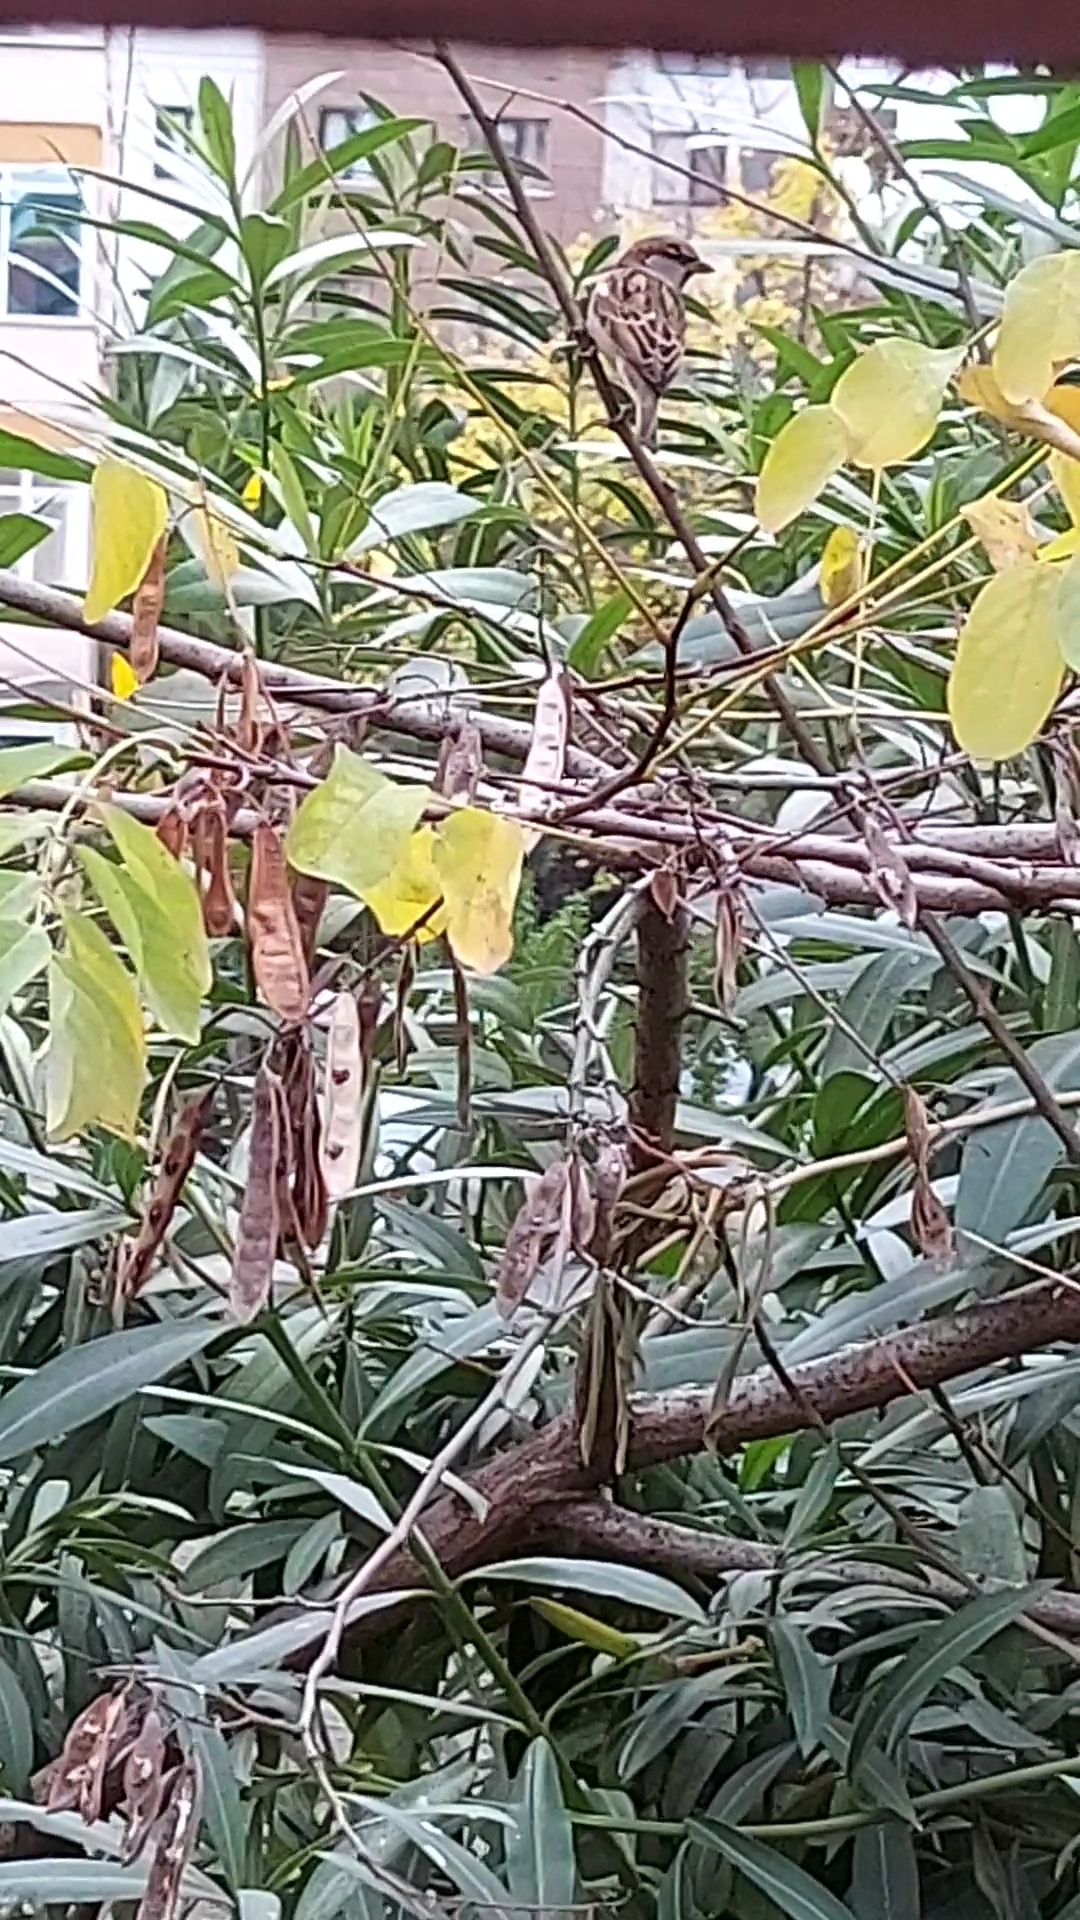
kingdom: Animalia
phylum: Chordata
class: Aves
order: Passeriformes
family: Passeridae
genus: Passer
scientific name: Passer domesticus
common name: House sparrow
